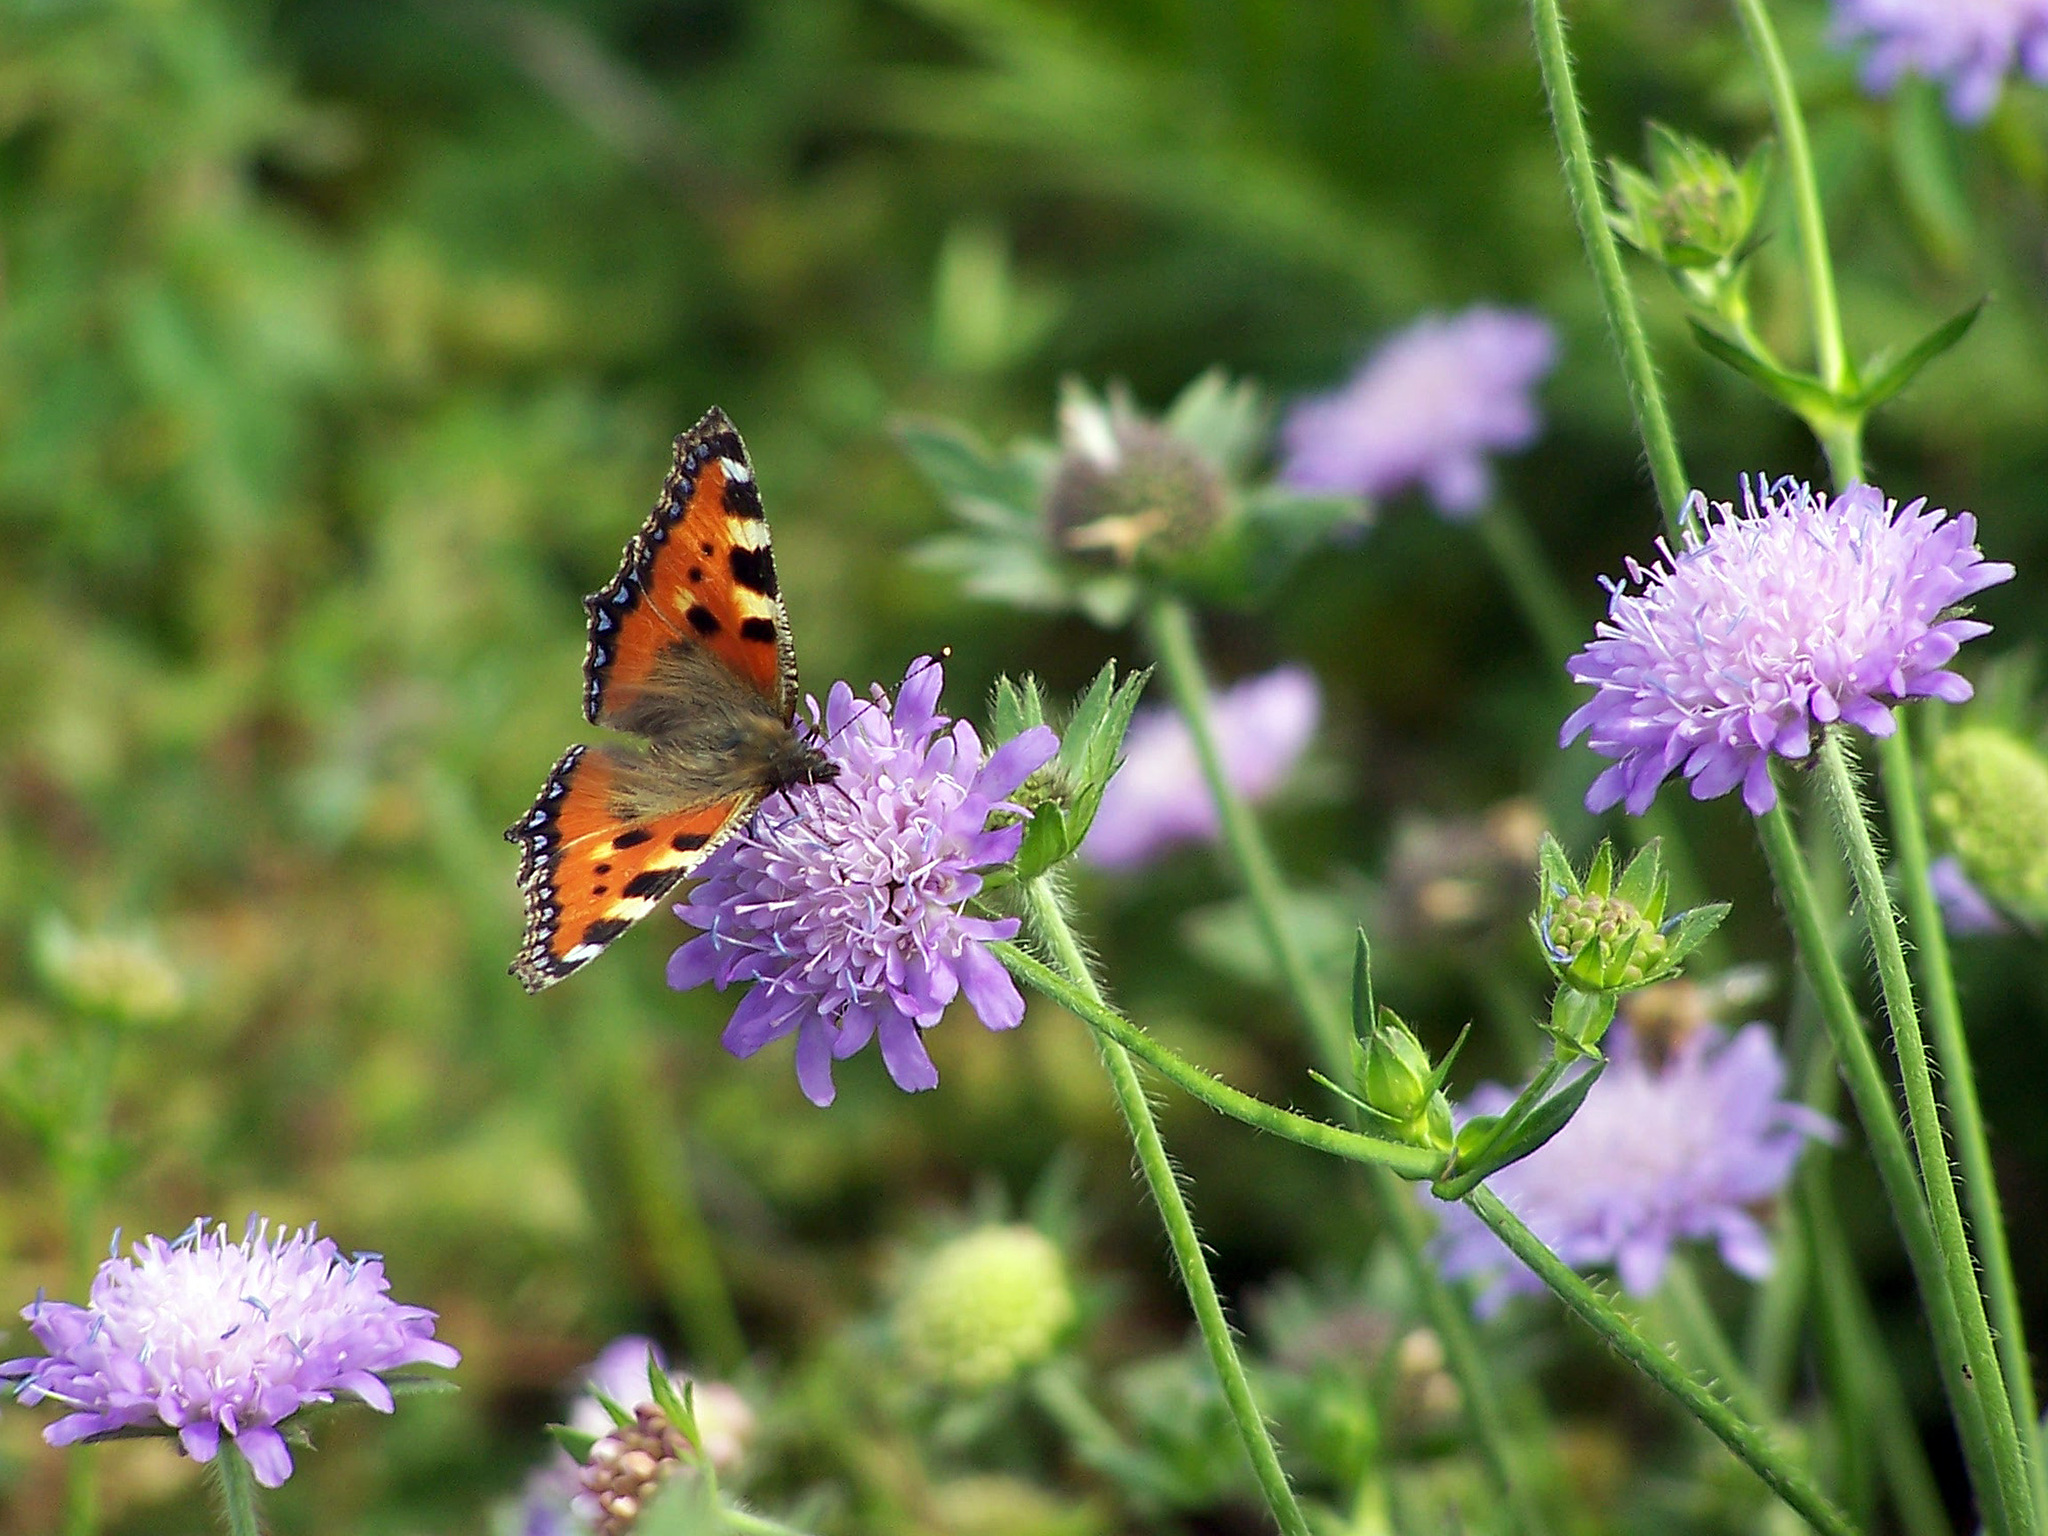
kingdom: Animalia
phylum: Arthropoda
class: Insecta
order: Lepidoptera
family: Nymphalidae
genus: Aglais
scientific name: Aglais urticae
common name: Small tortoiseshell
